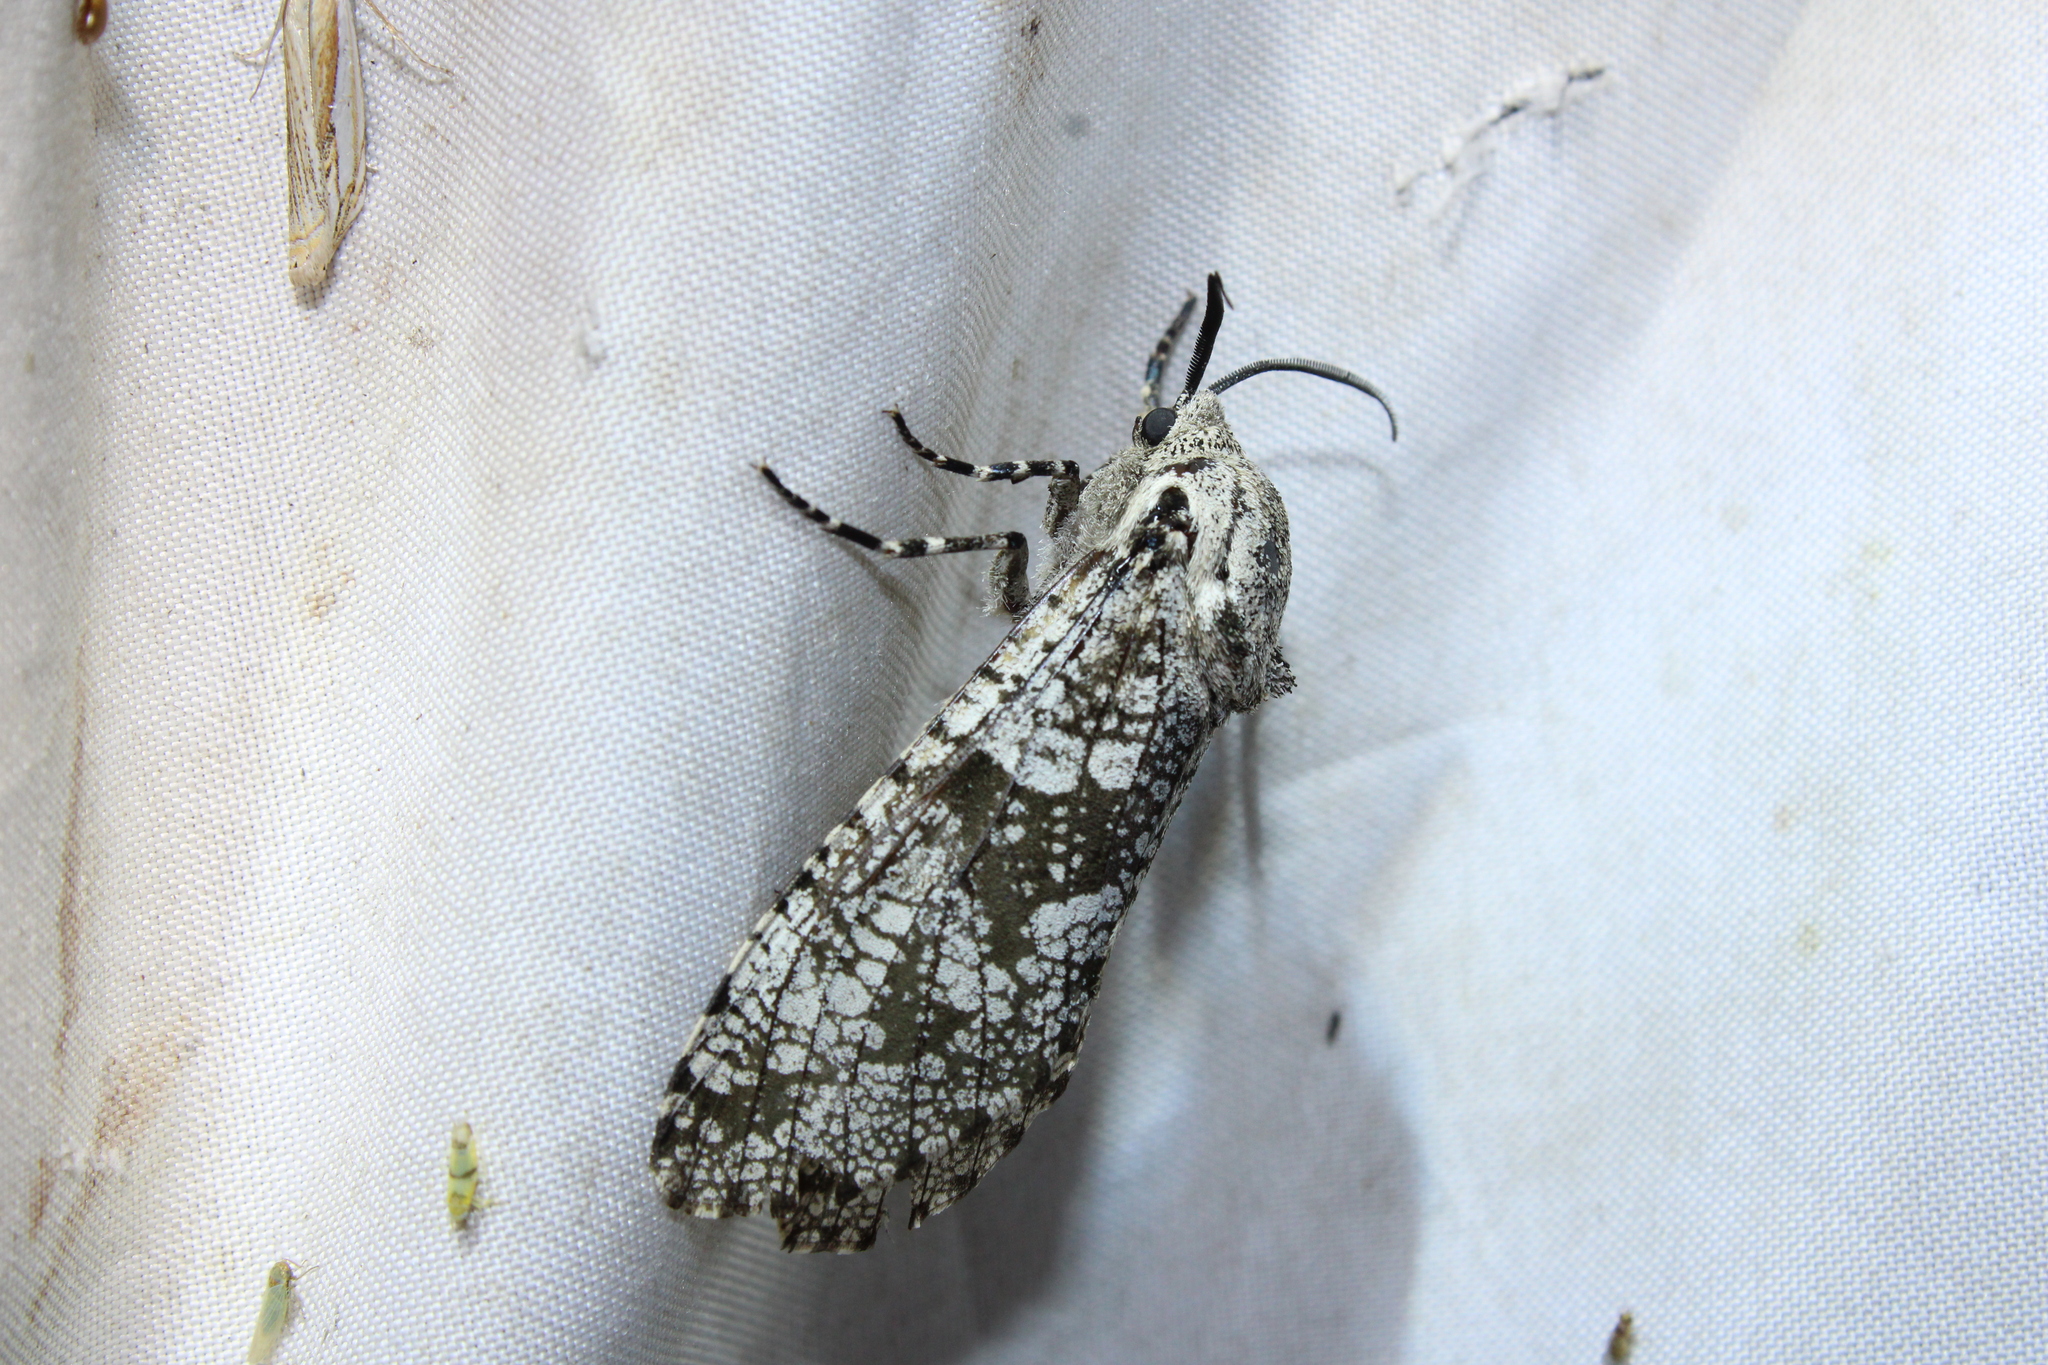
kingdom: Animalia
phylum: Arthropoda
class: Insecta
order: Lepidoptera
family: Cossidae
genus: Prionoxystus
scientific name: Prionoxystus robiniae
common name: Carpenterworm
